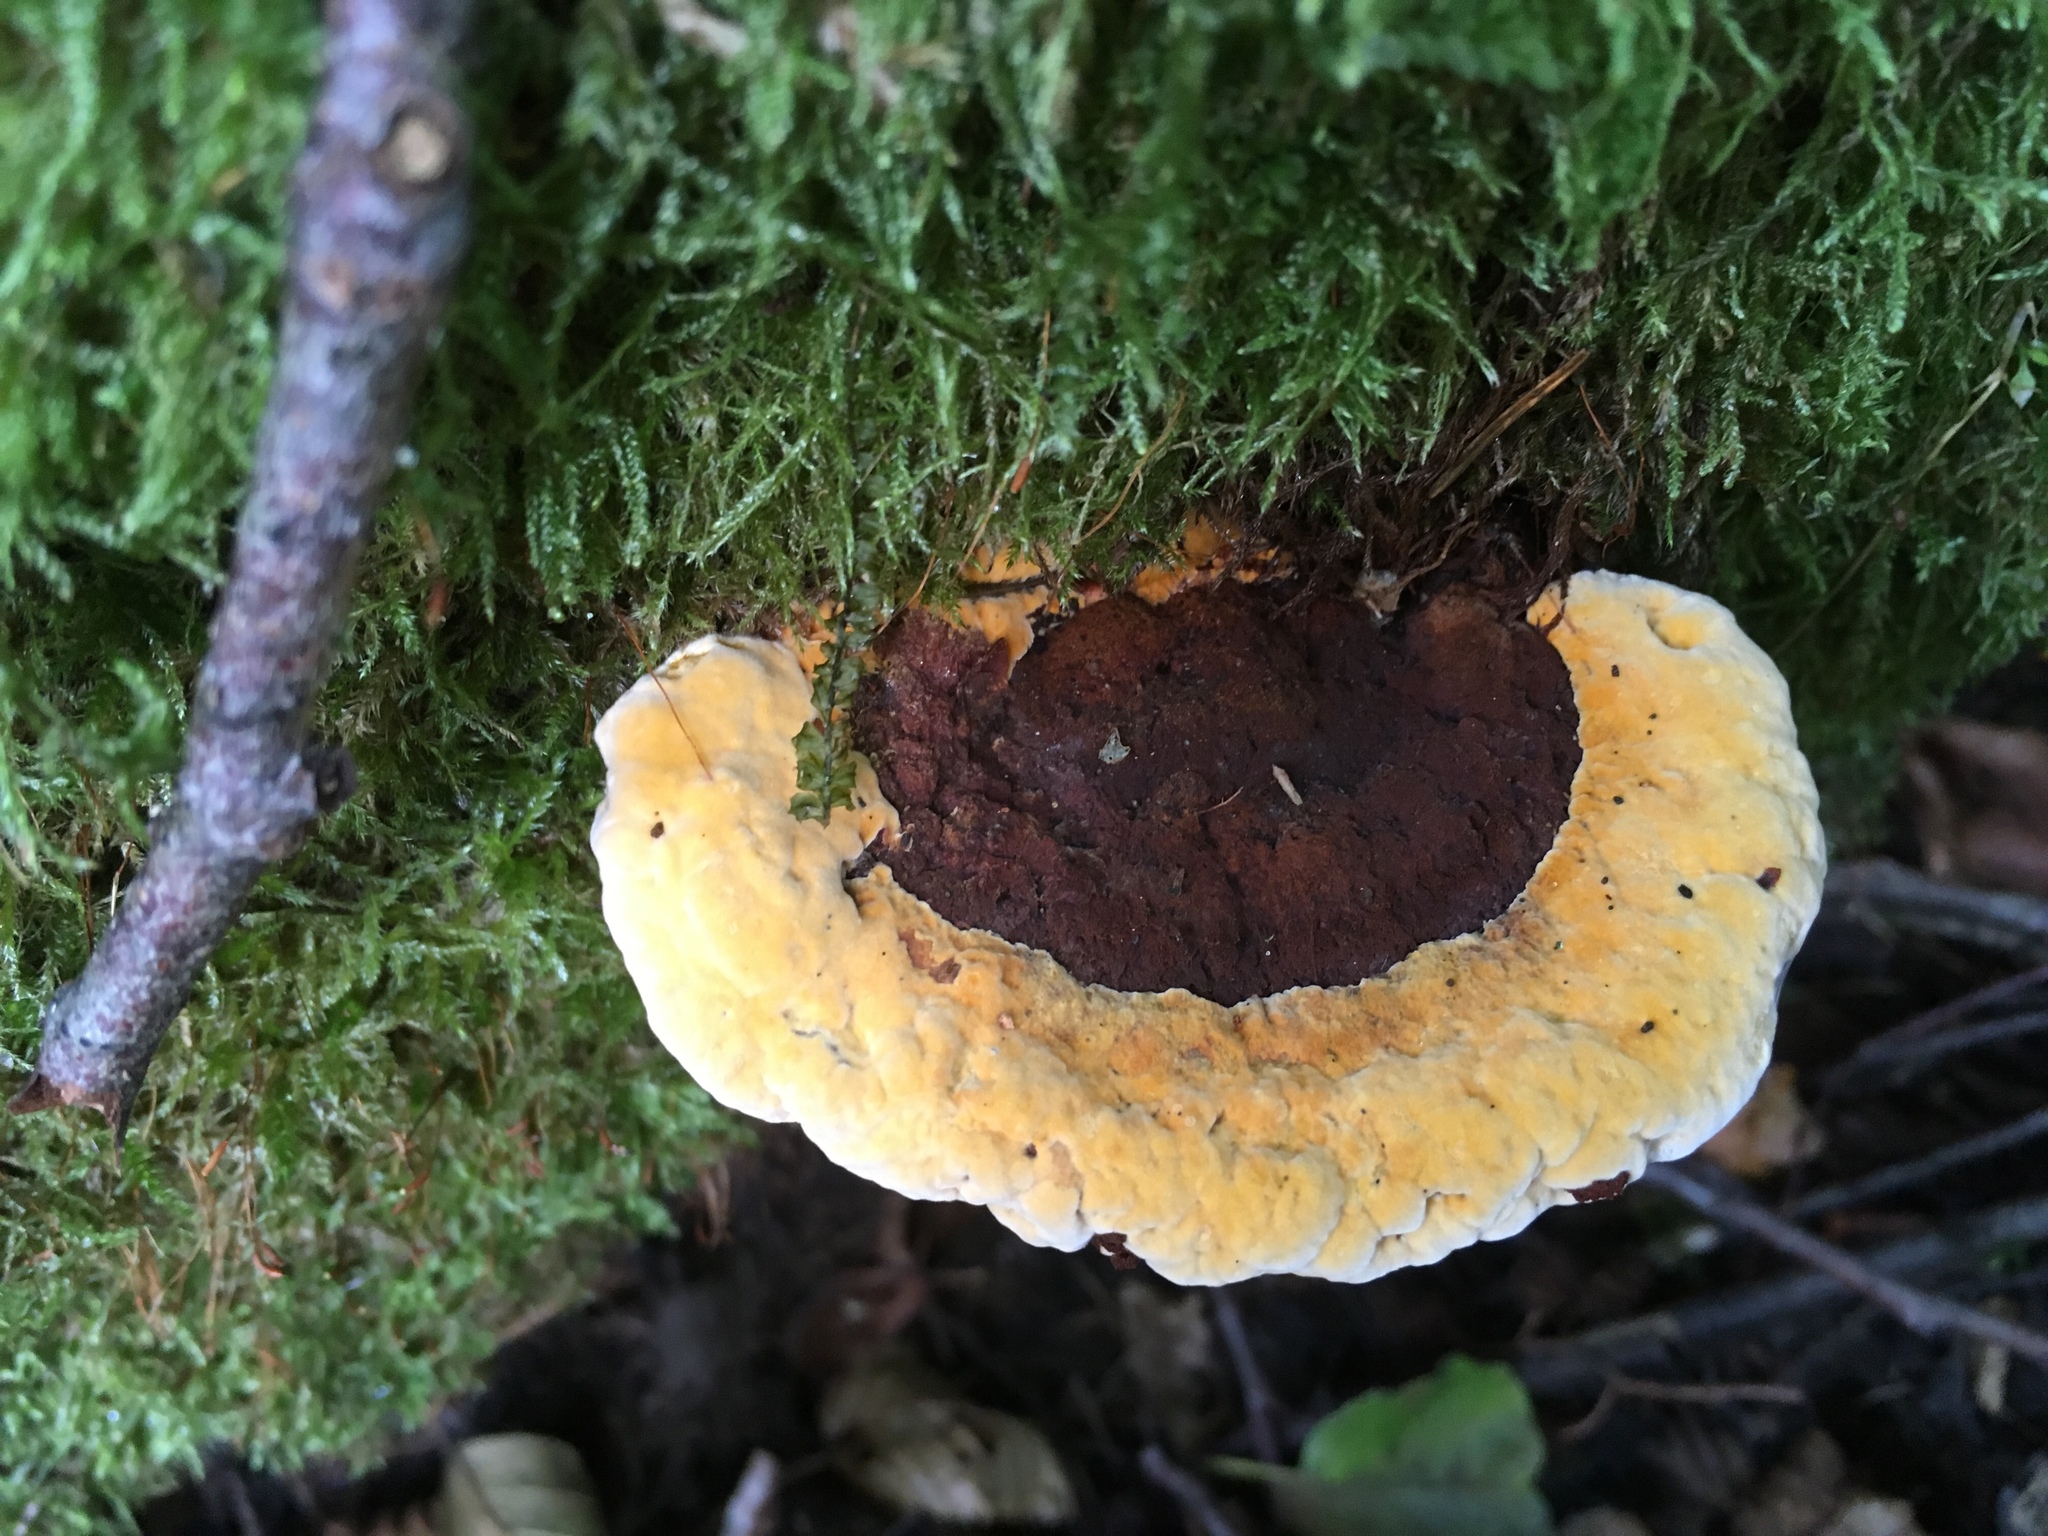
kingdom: Fungi
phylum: Basidiomycota
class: Agaricomycetes
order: Gloeophyllales
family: Gloeophyllaceae
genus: Gloeophyllum
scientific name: Gloeophyllum odoratum
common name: Anise mazegill
